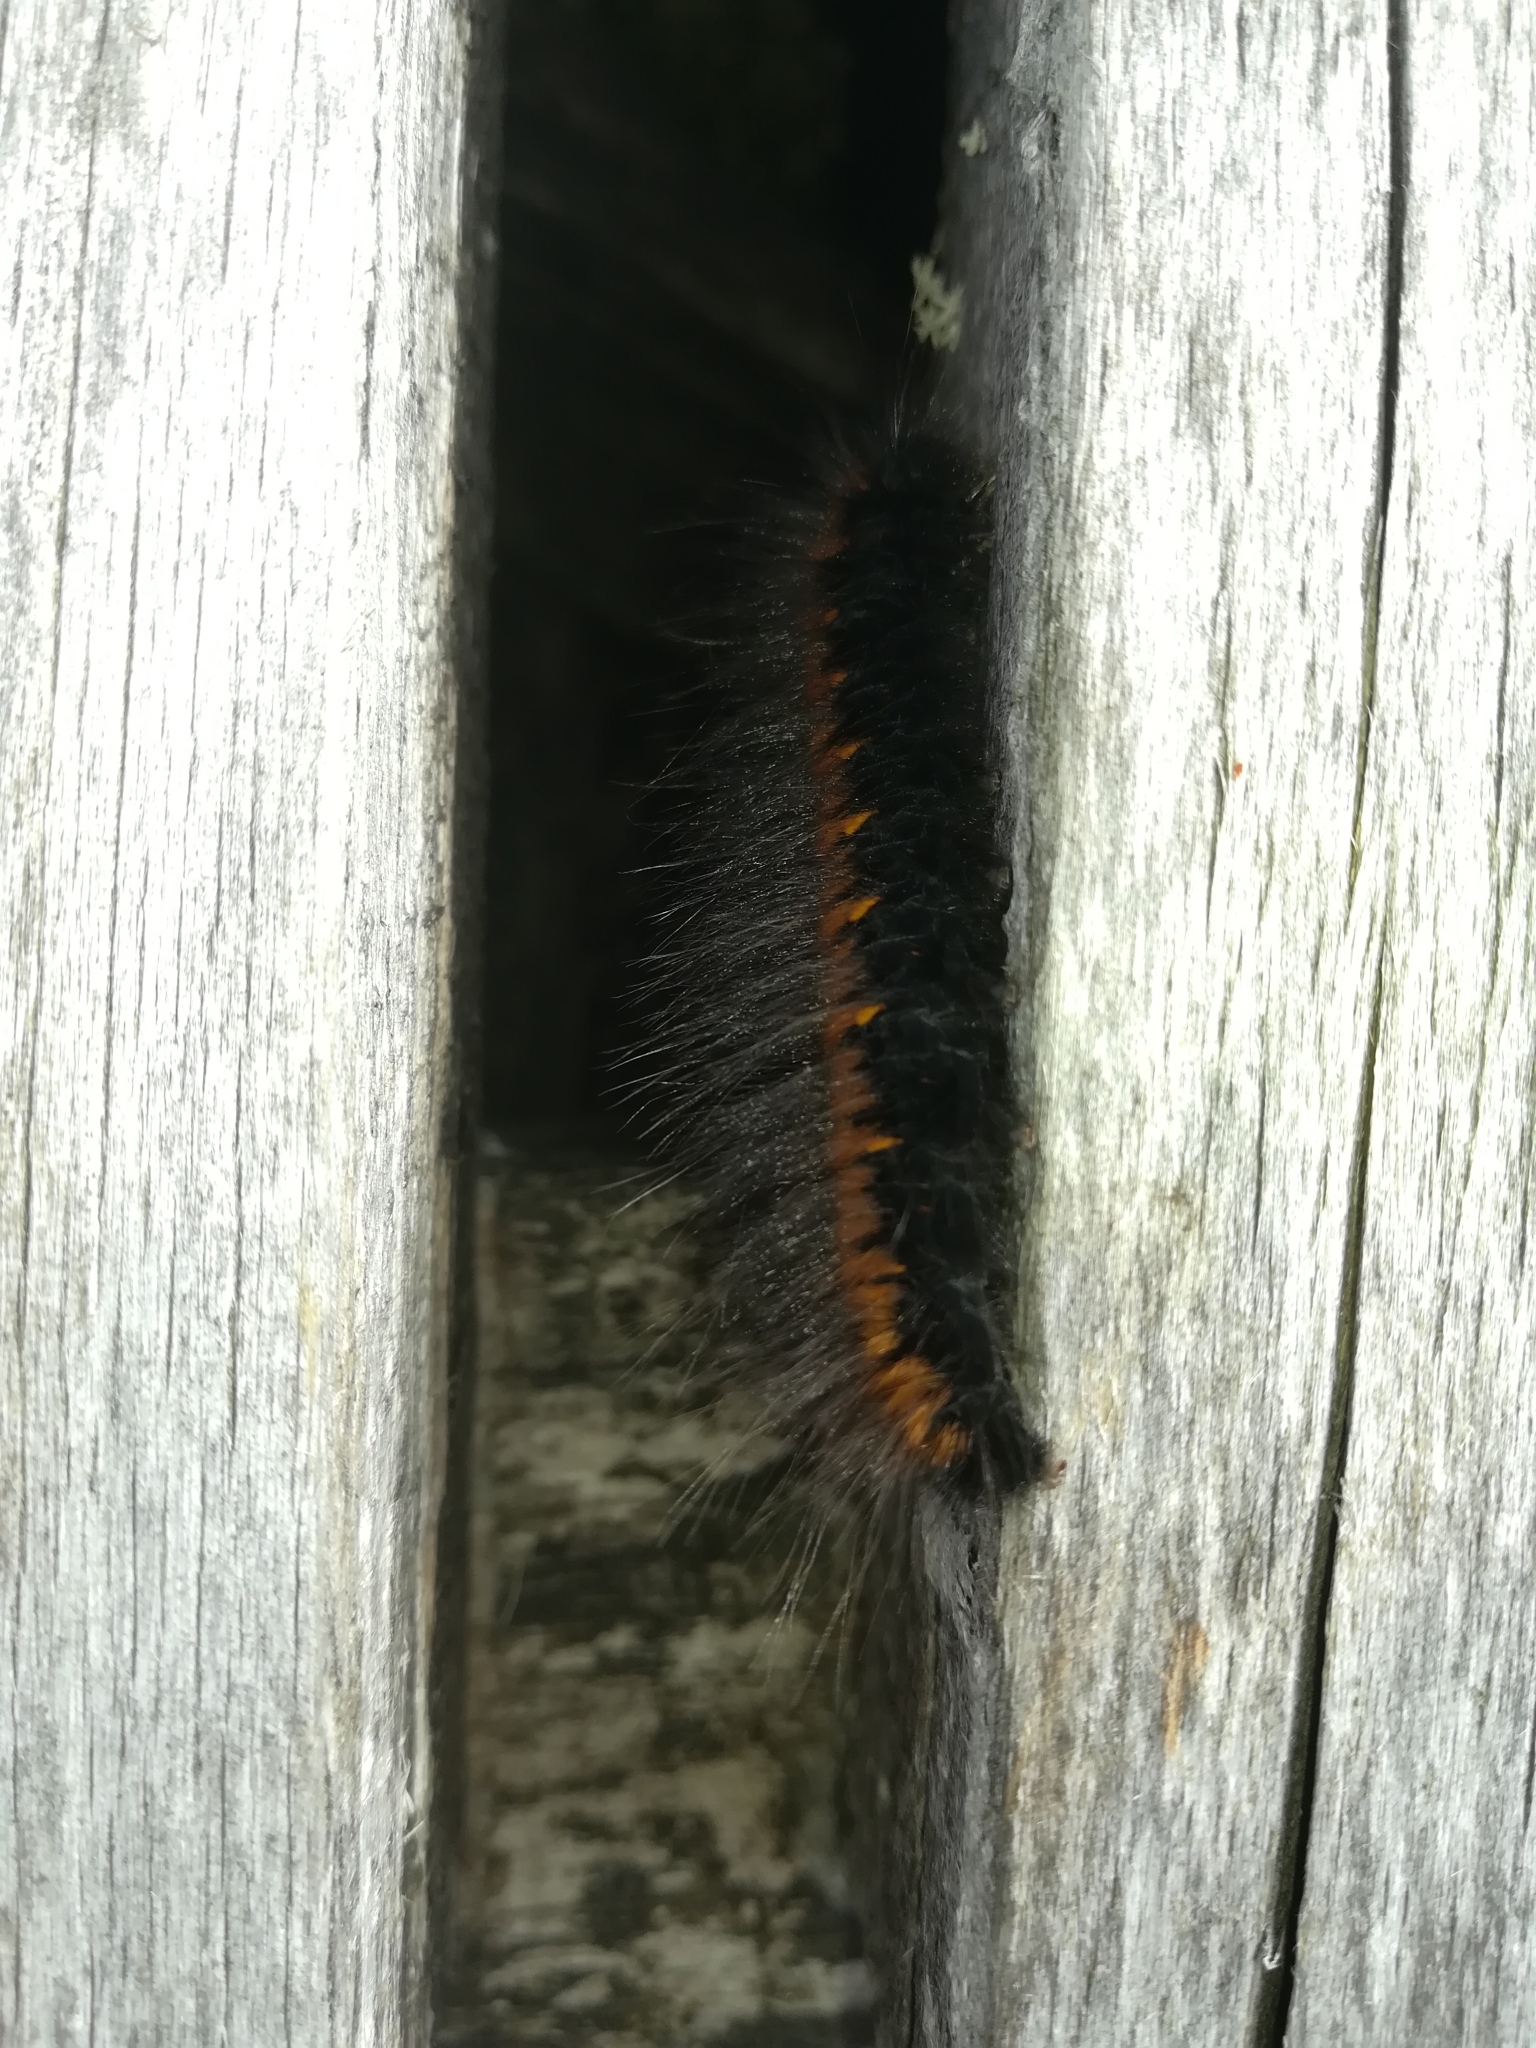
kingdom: Animalia
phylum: Arthropoda
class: Insecta
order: Lepidoptera
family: Lasiocampidae
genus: Macrothylacia
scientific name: Macrothylacia rubi
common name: Fox moth
